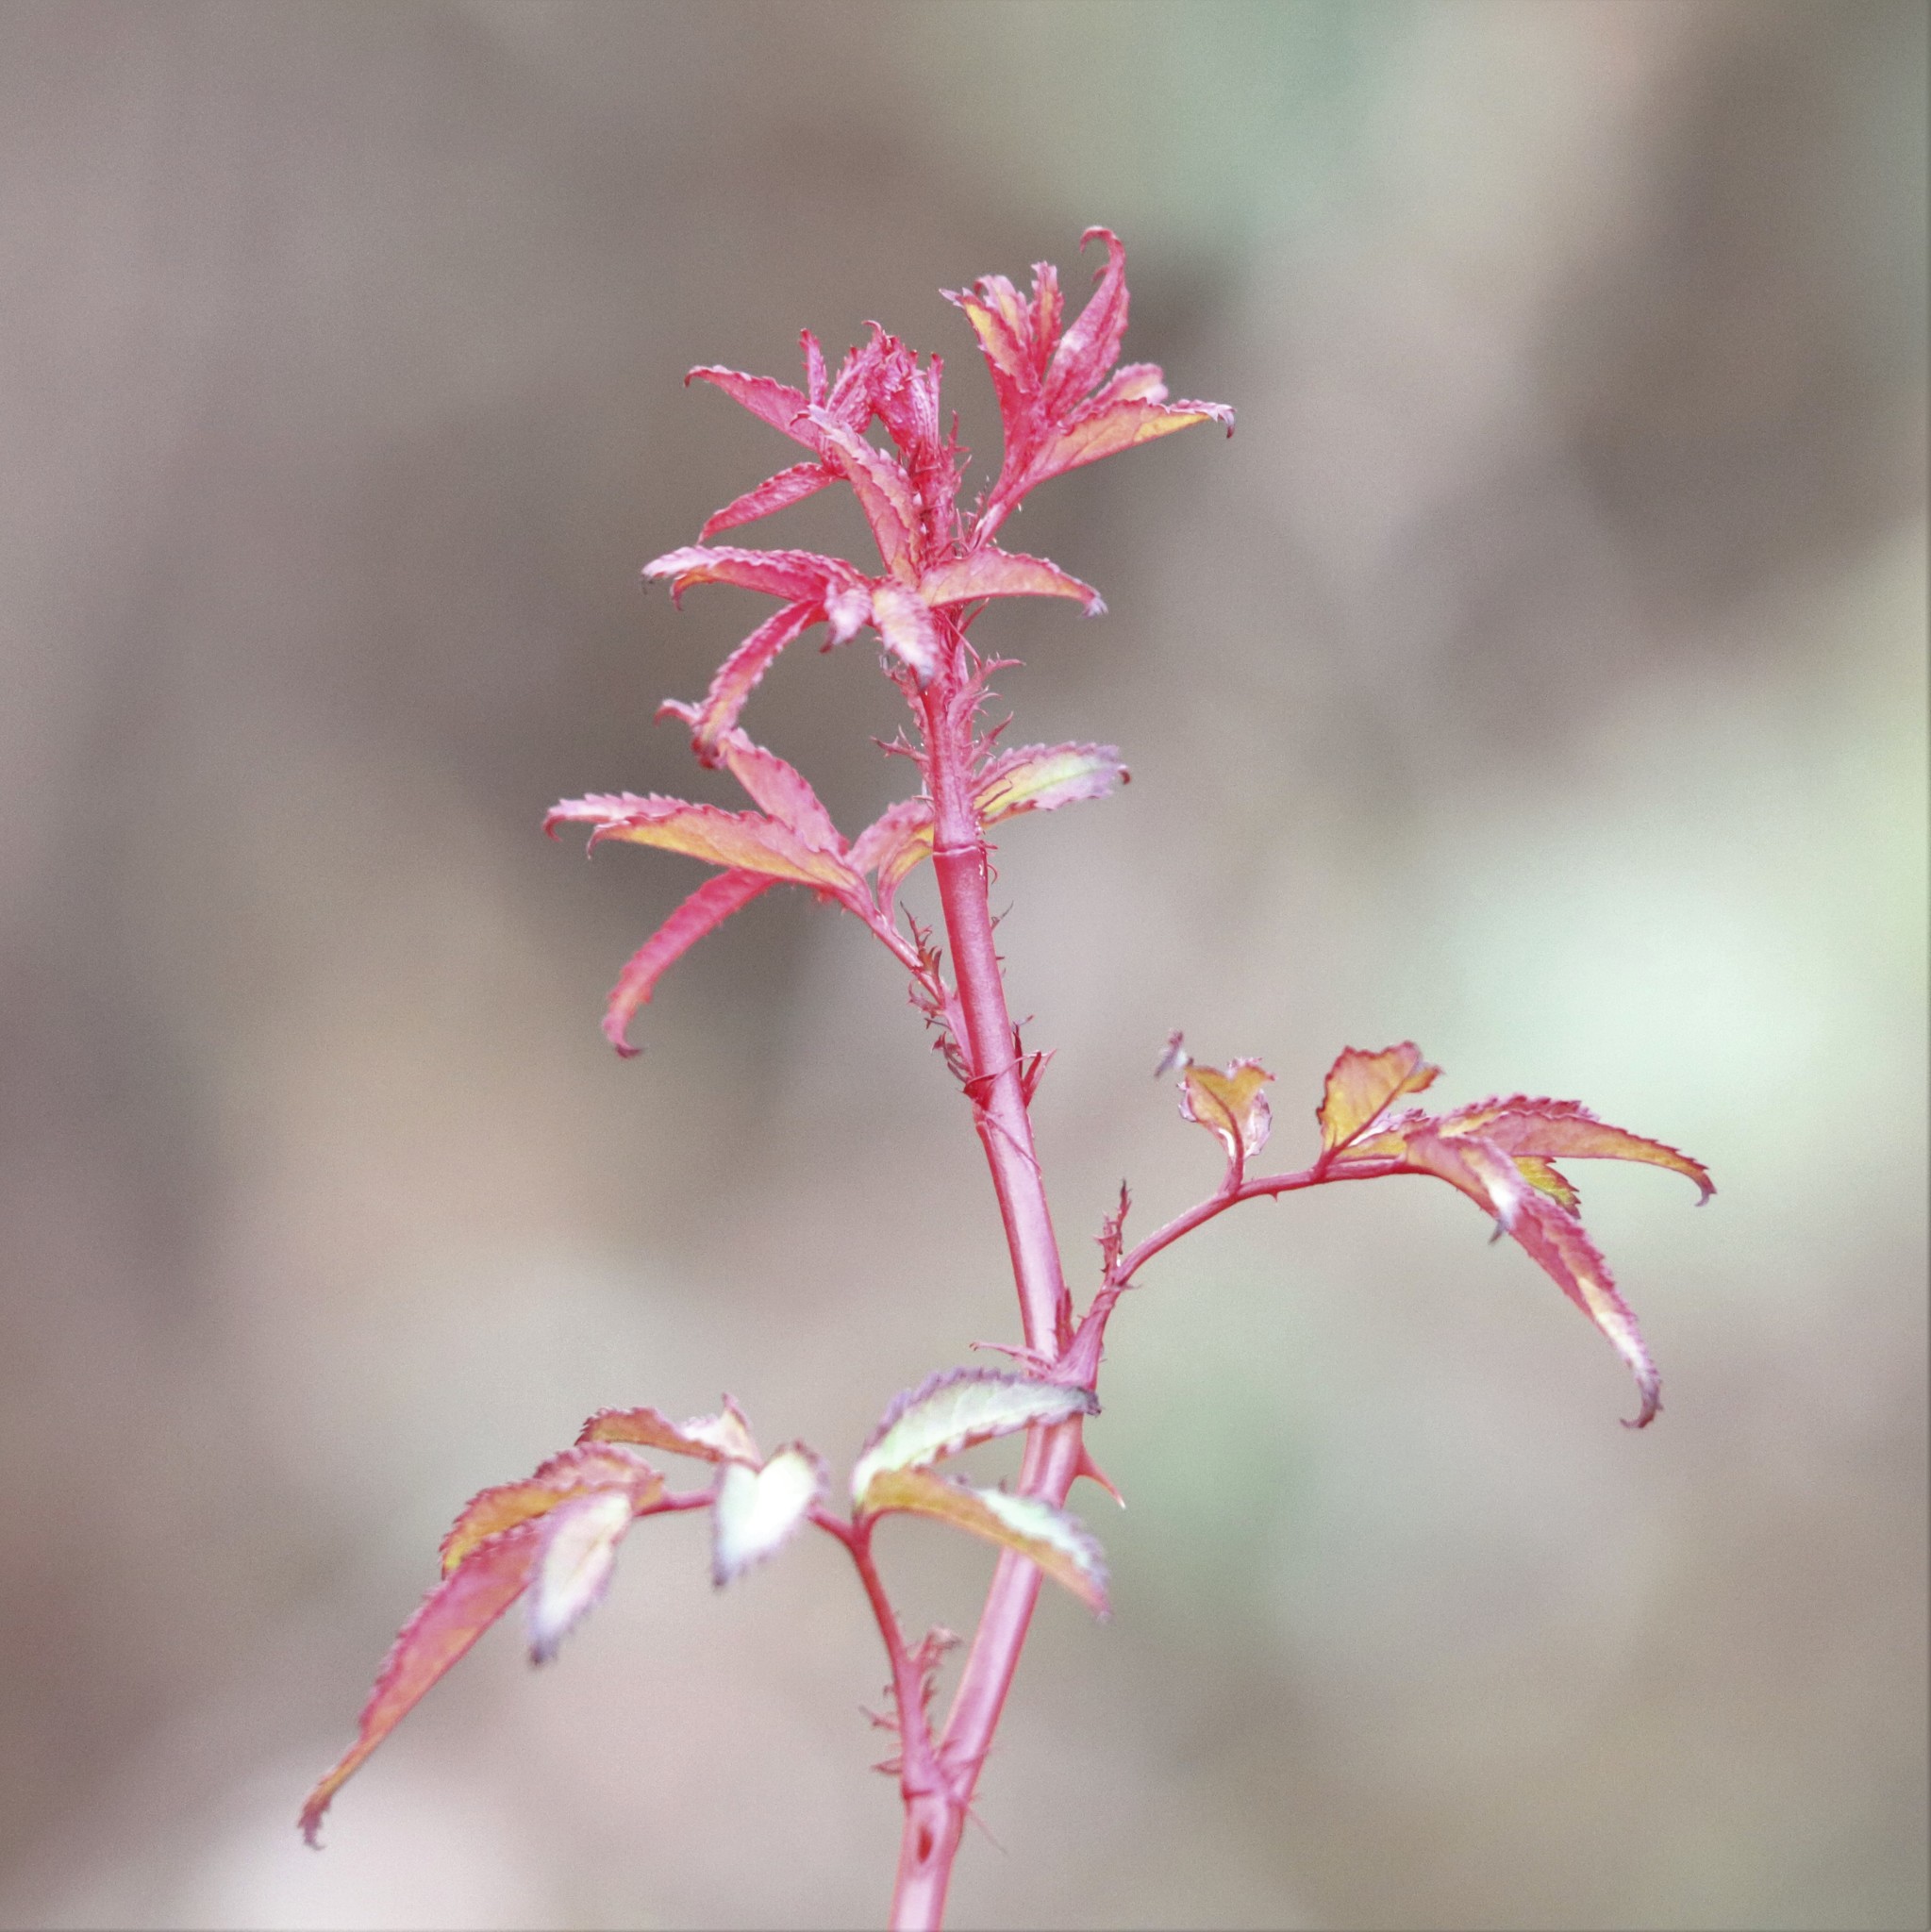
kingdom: Viruses
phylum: Negarnaviricota
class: Ellioviricetes
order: Bunyavirales
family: Fimoviridae
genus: Emaravirus
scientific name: Emaravirus rosae
